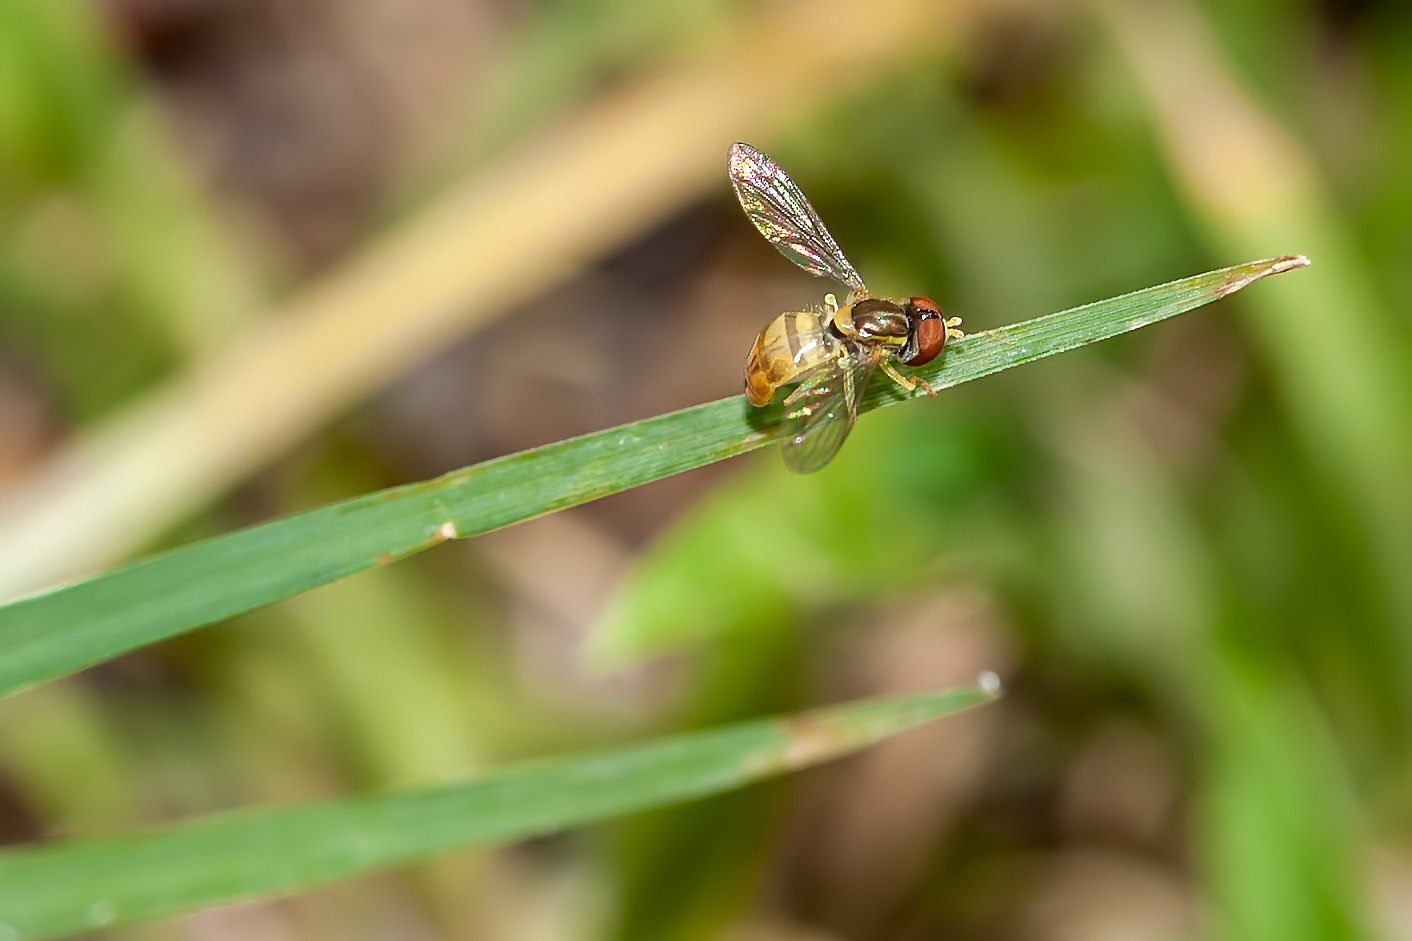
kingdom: Animalia
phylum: Arthropoda
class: Insecta
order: Diptera
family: Syrphidae
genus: Toxomerus
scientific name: Toxomerus marginatus
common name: Syrphid fly
